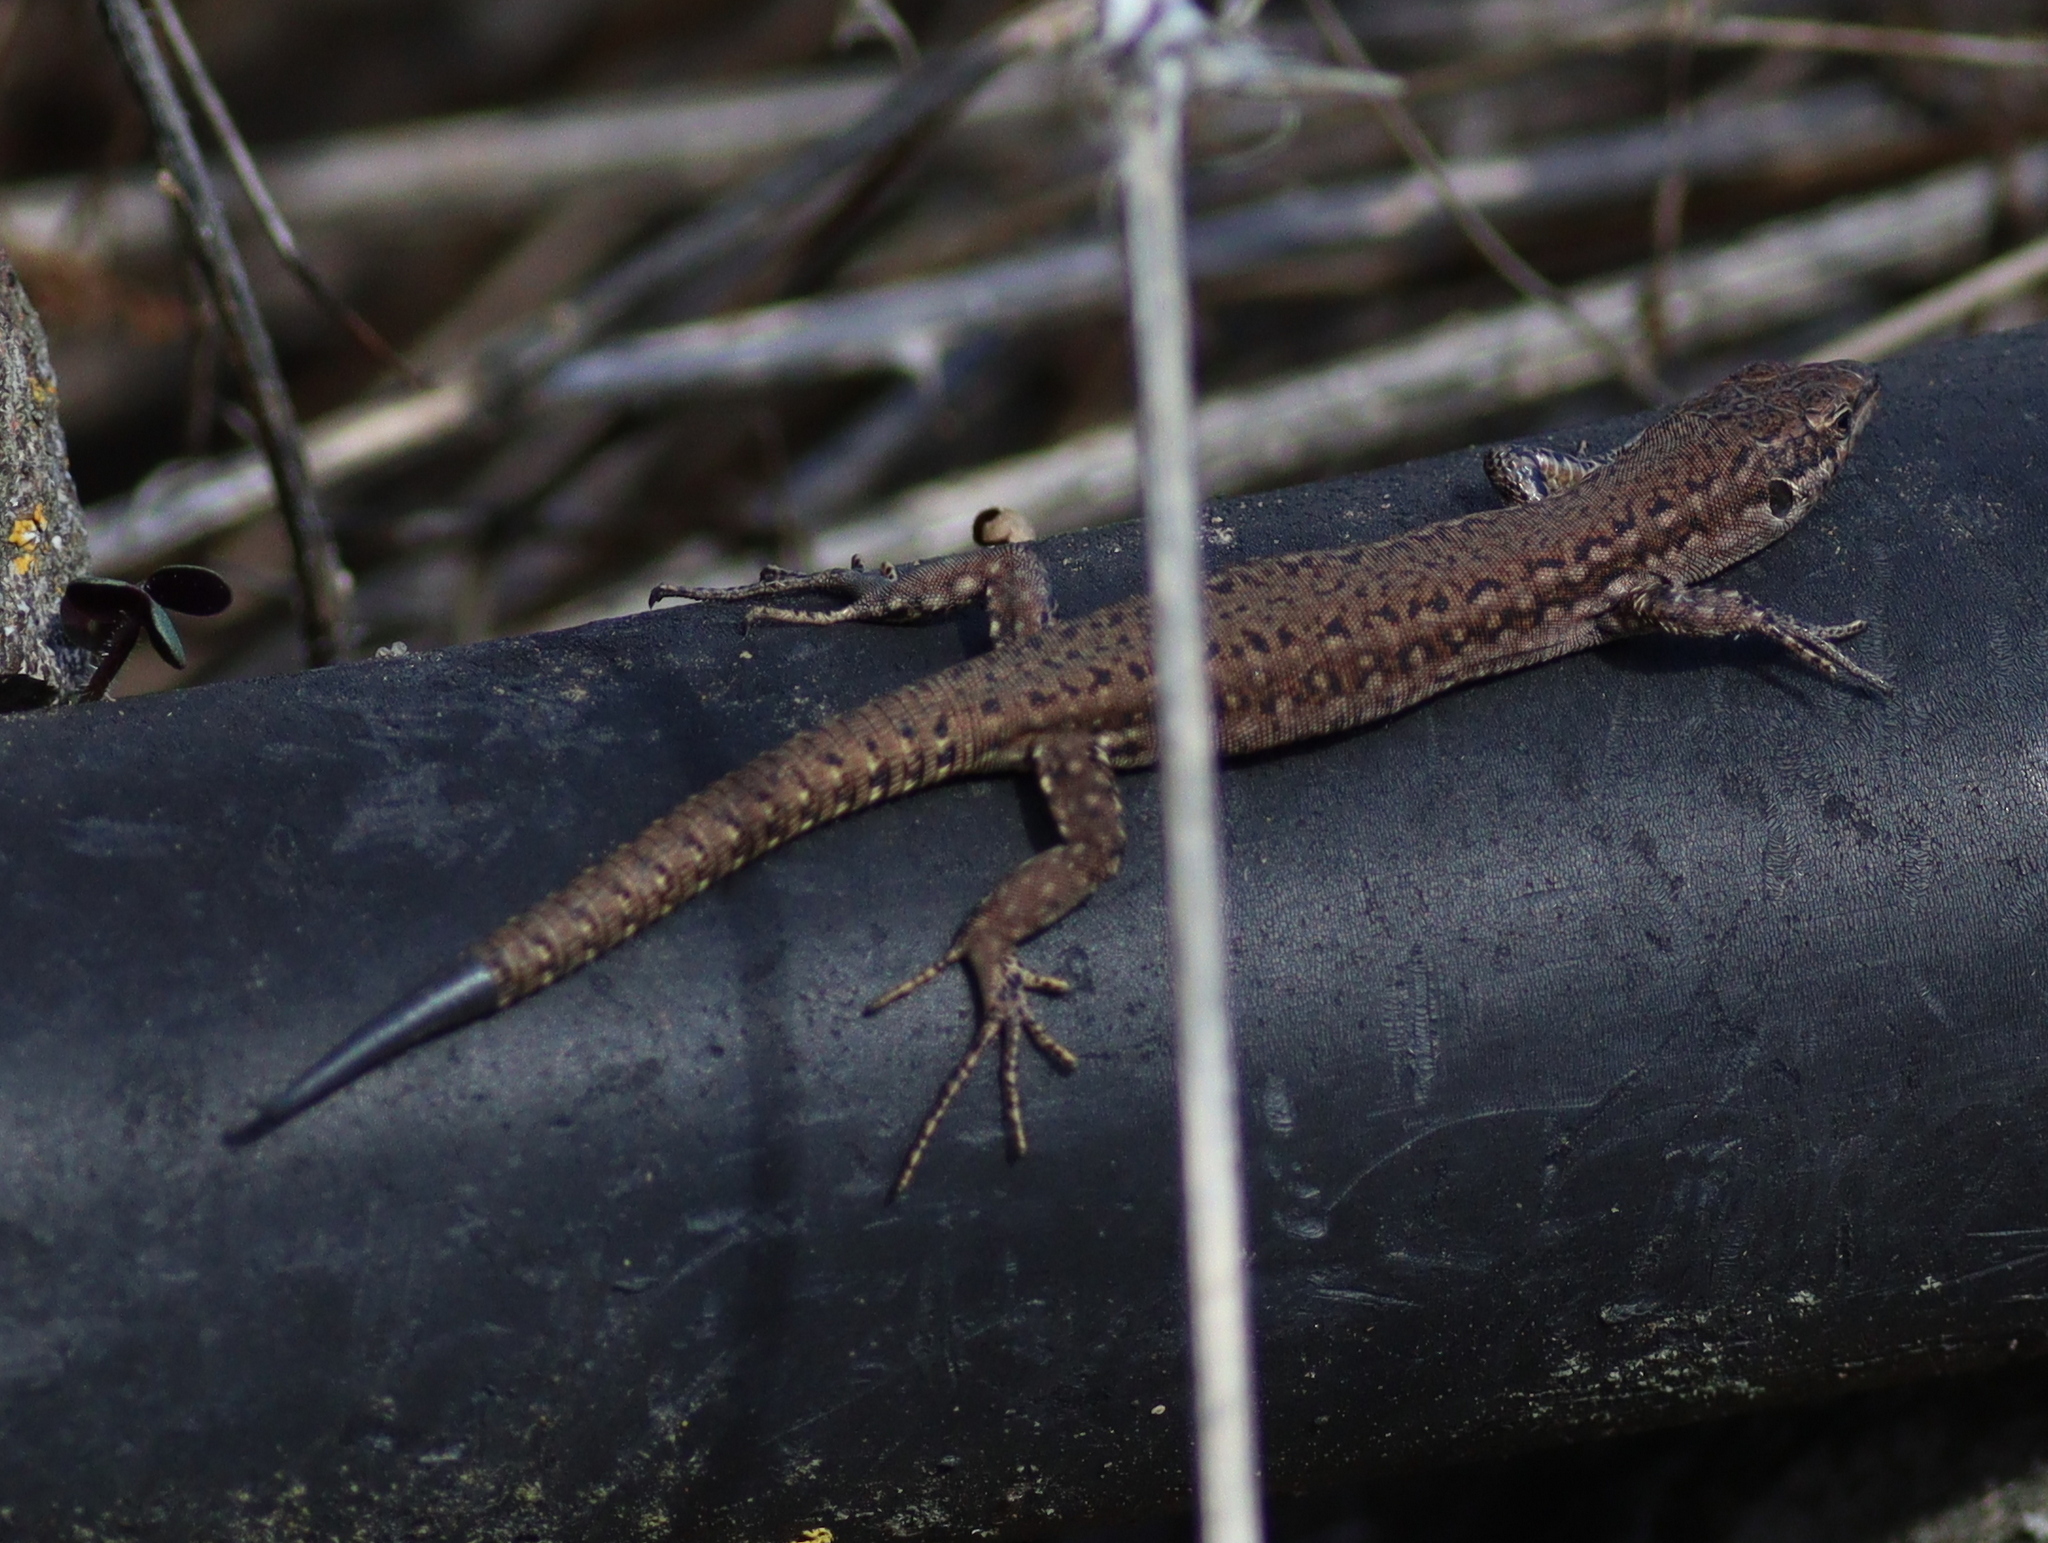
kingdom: Animalia
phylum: Chordata
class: Squamata
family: Lacertidae
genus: Podarcis
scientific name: Podarcis virescens
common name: Geniez’s wall lizard
